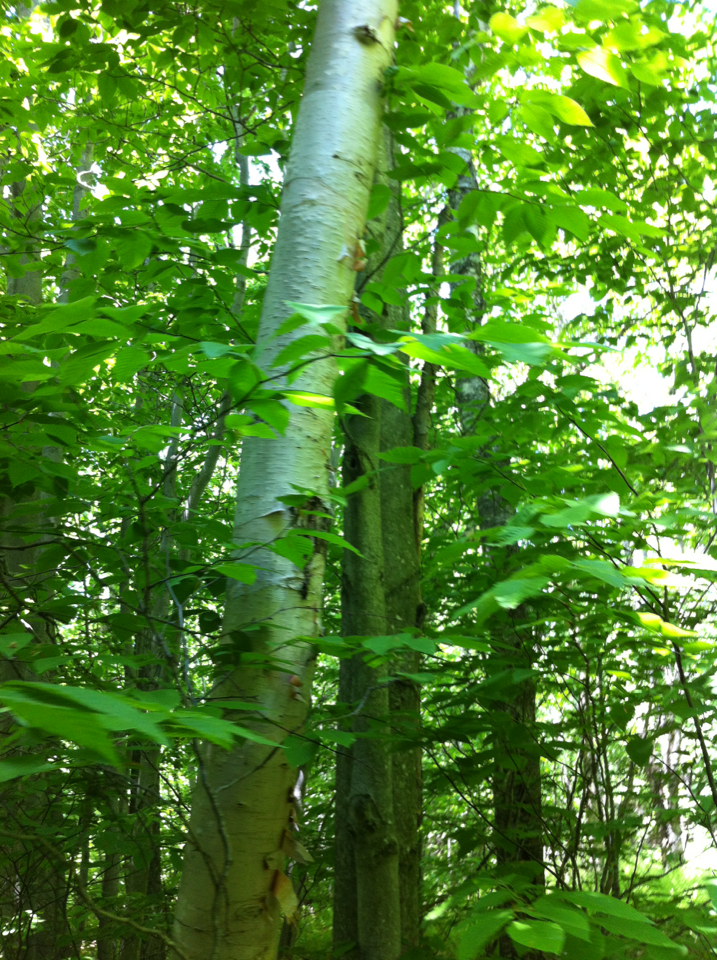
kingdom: Plantae
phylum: Tracheophyta
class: Magnoliopsida
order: Fagales
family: Betulaceae
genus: Betula
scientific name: Betula papyrifera
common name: Paper birch
